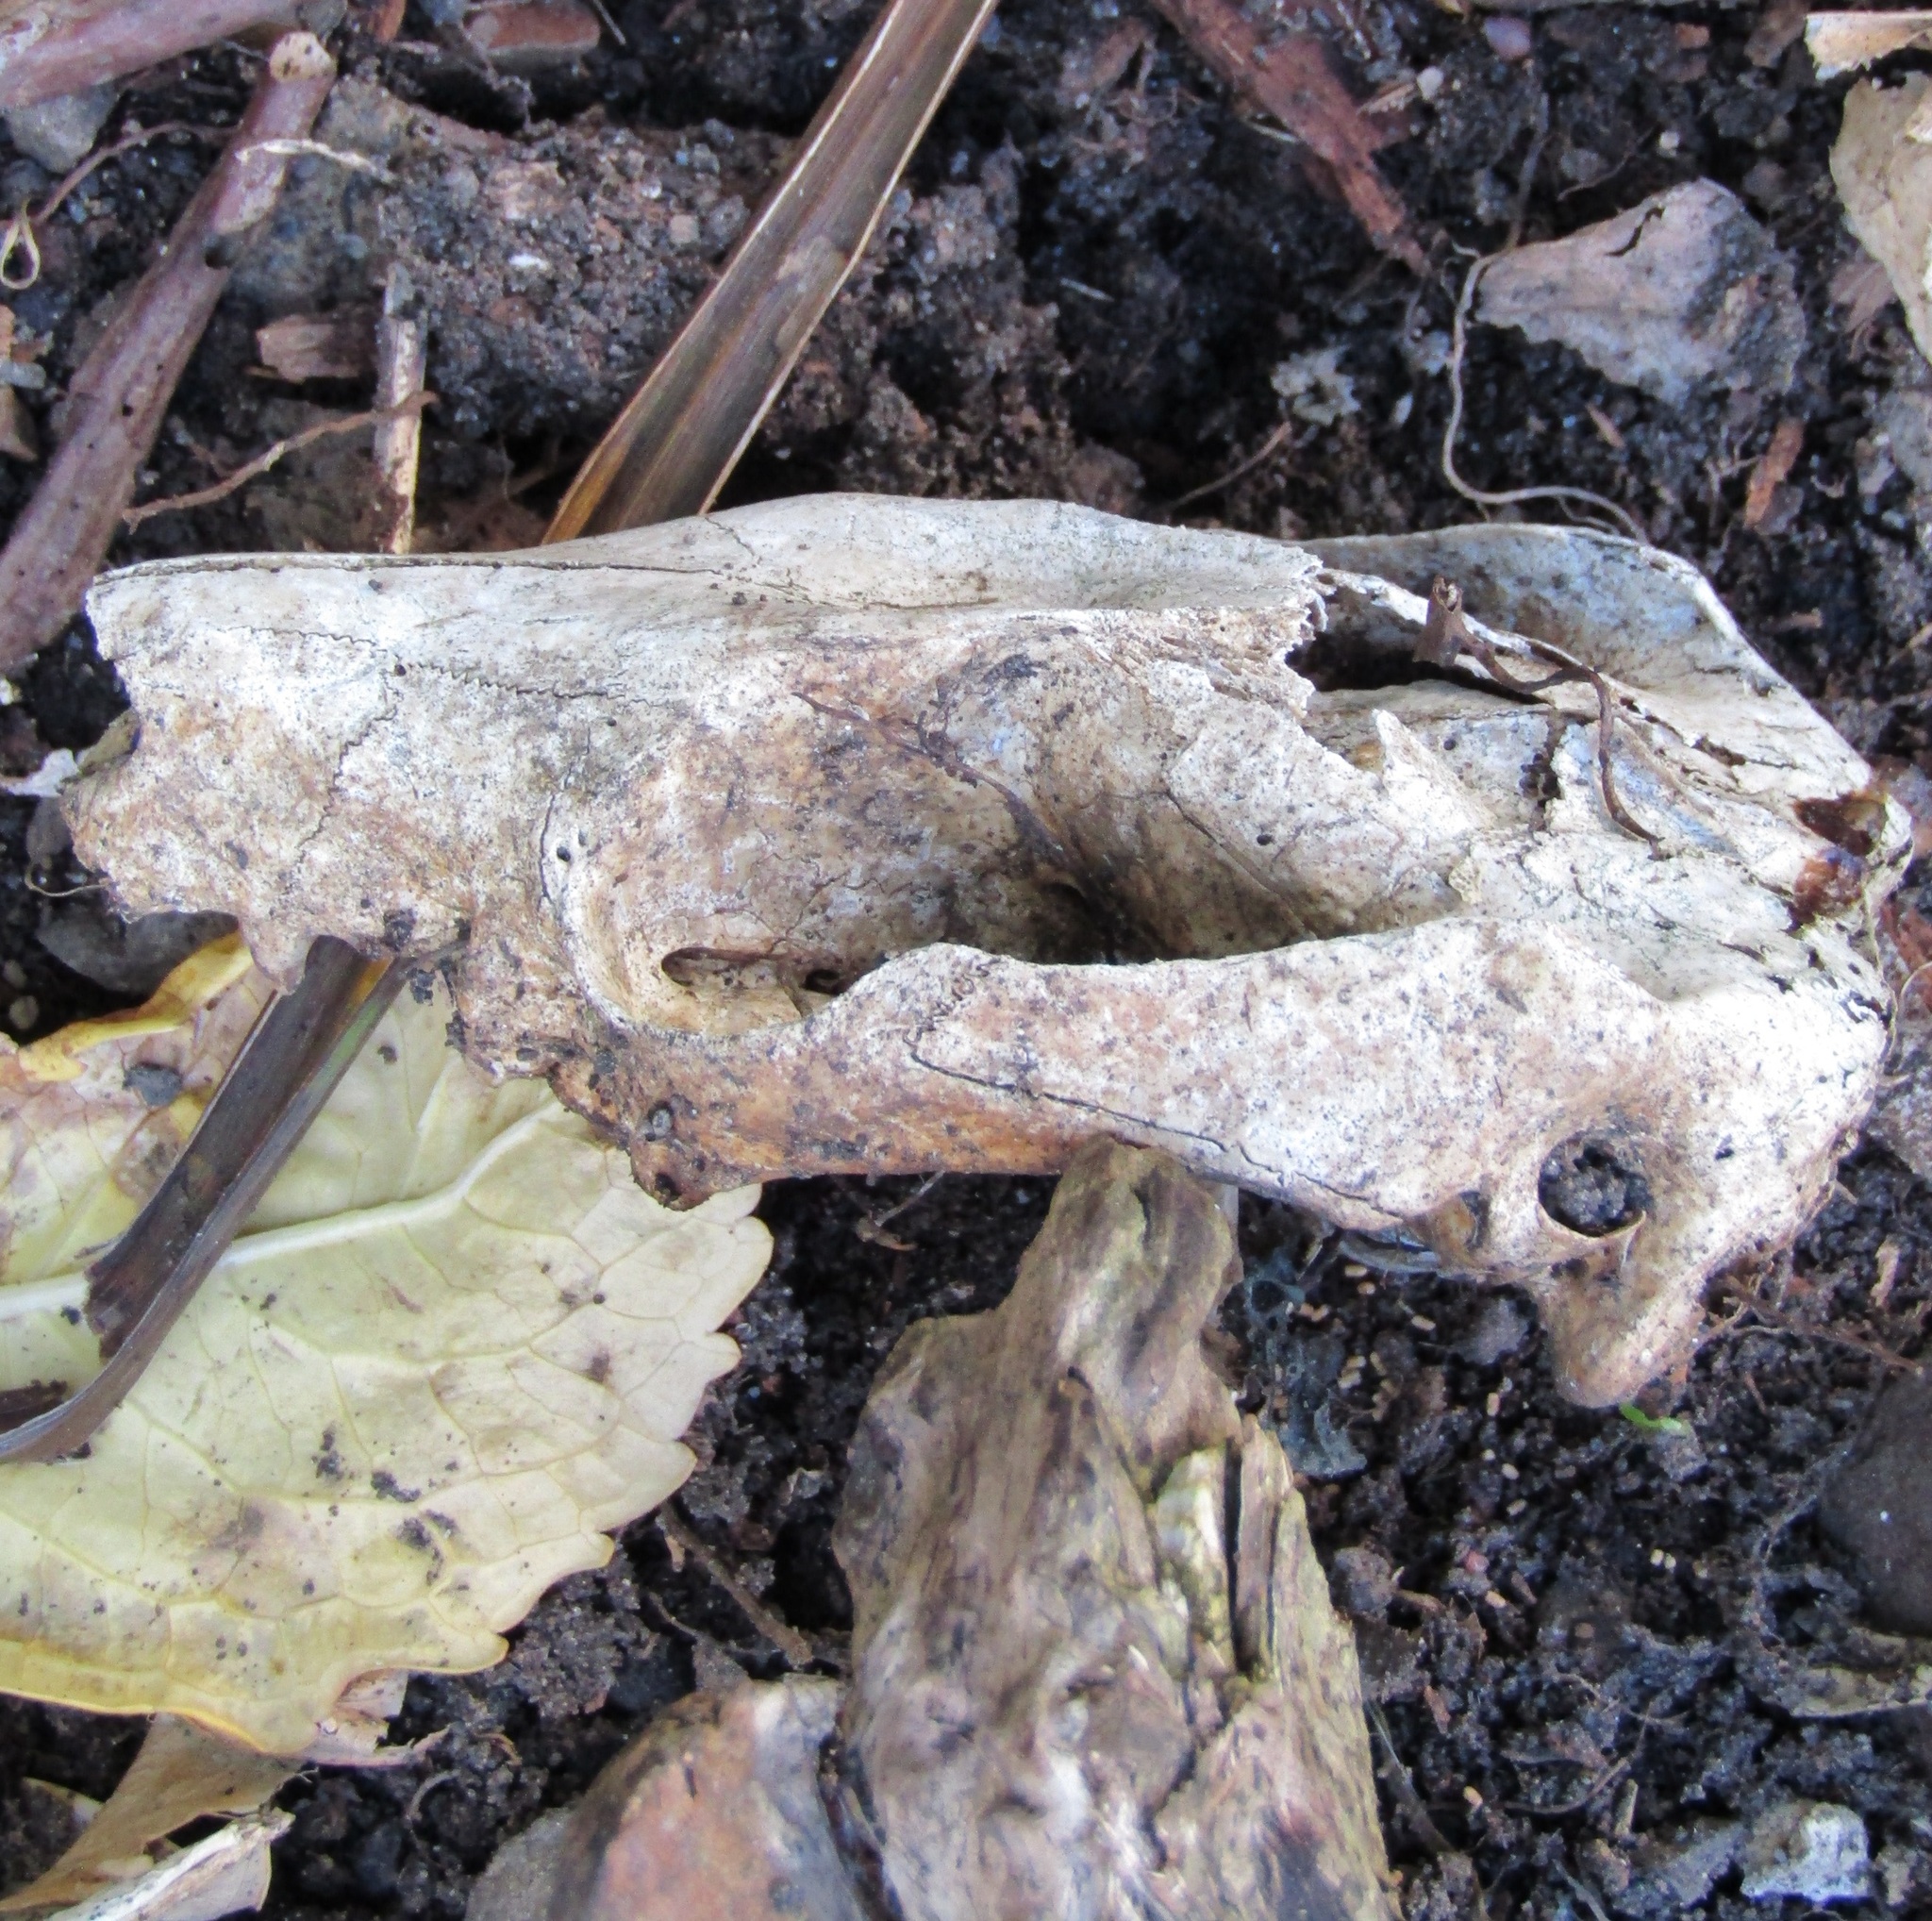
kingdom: Animalia
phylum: Chordata
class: Mammalia
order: Diprotodontia
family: Phalangeridae
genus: Trichosurus
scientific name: Trichosurus vulpecula
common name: Common brushtail
